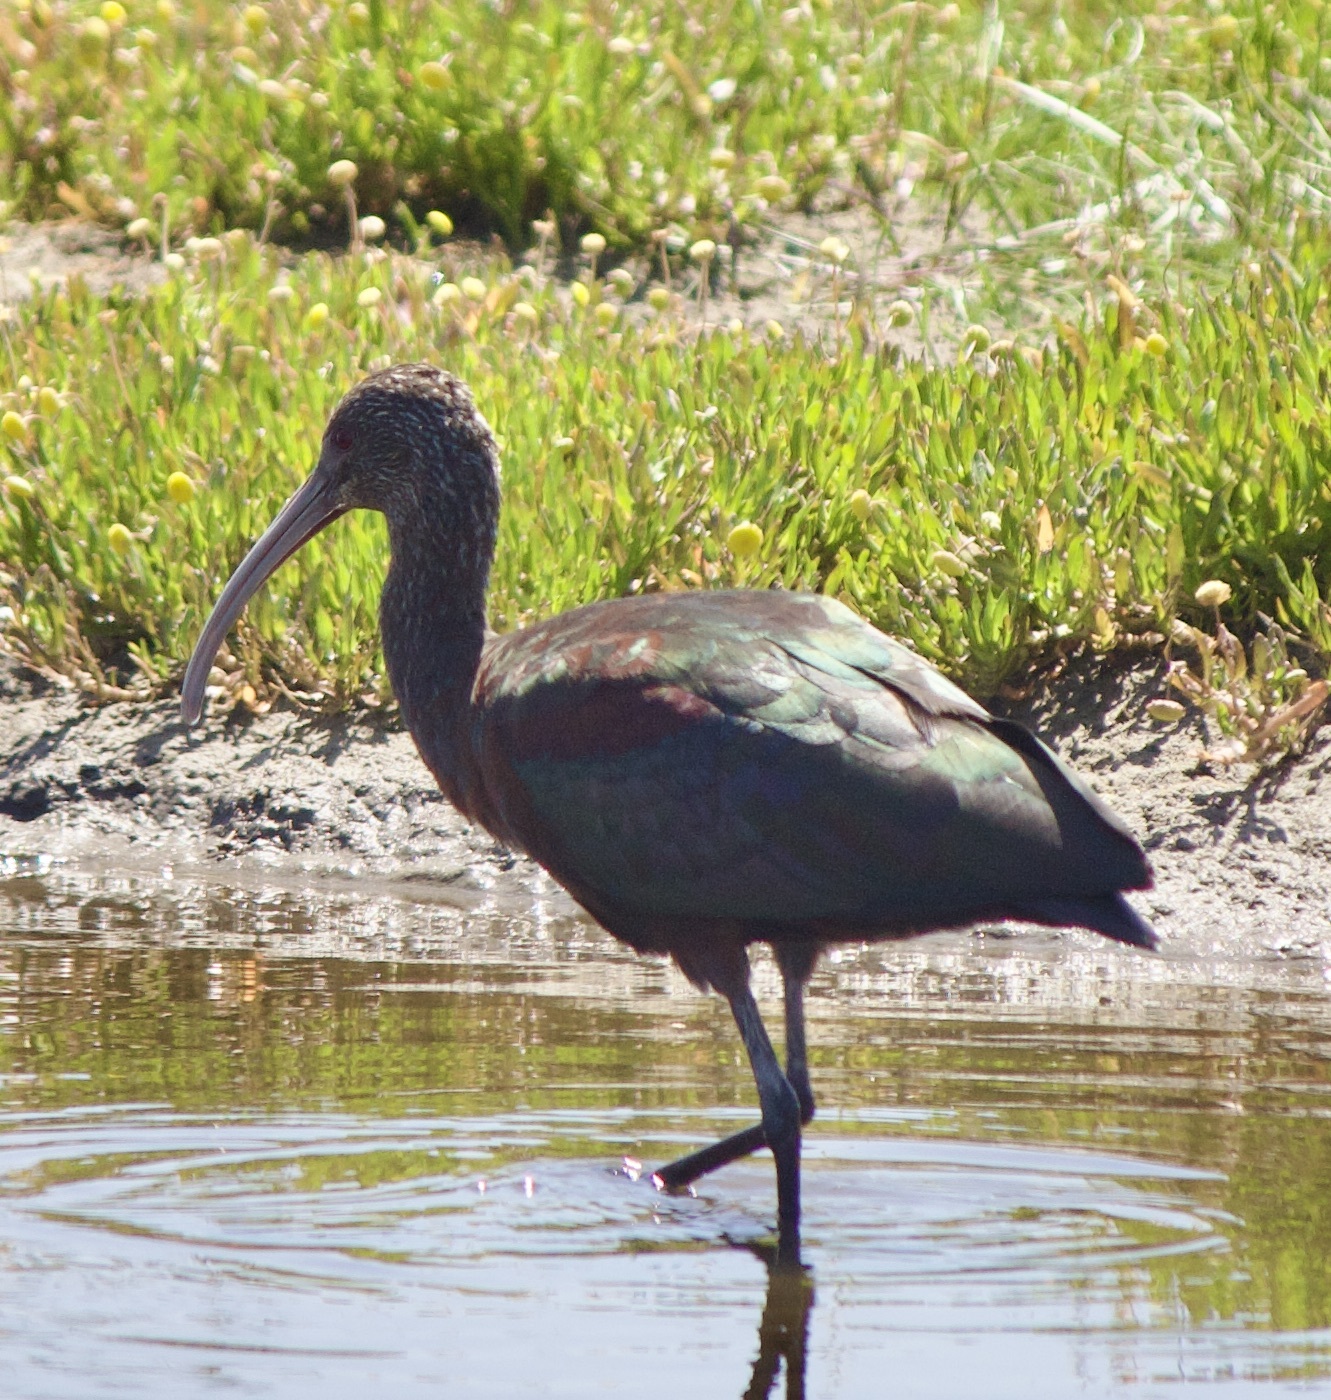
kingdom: Animalia
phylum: Chordata
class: Aves
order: Pelecaniformes
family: Threskiornithidae
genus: Plegadis
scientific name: Plegadis chihi
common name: White-faced ibis
